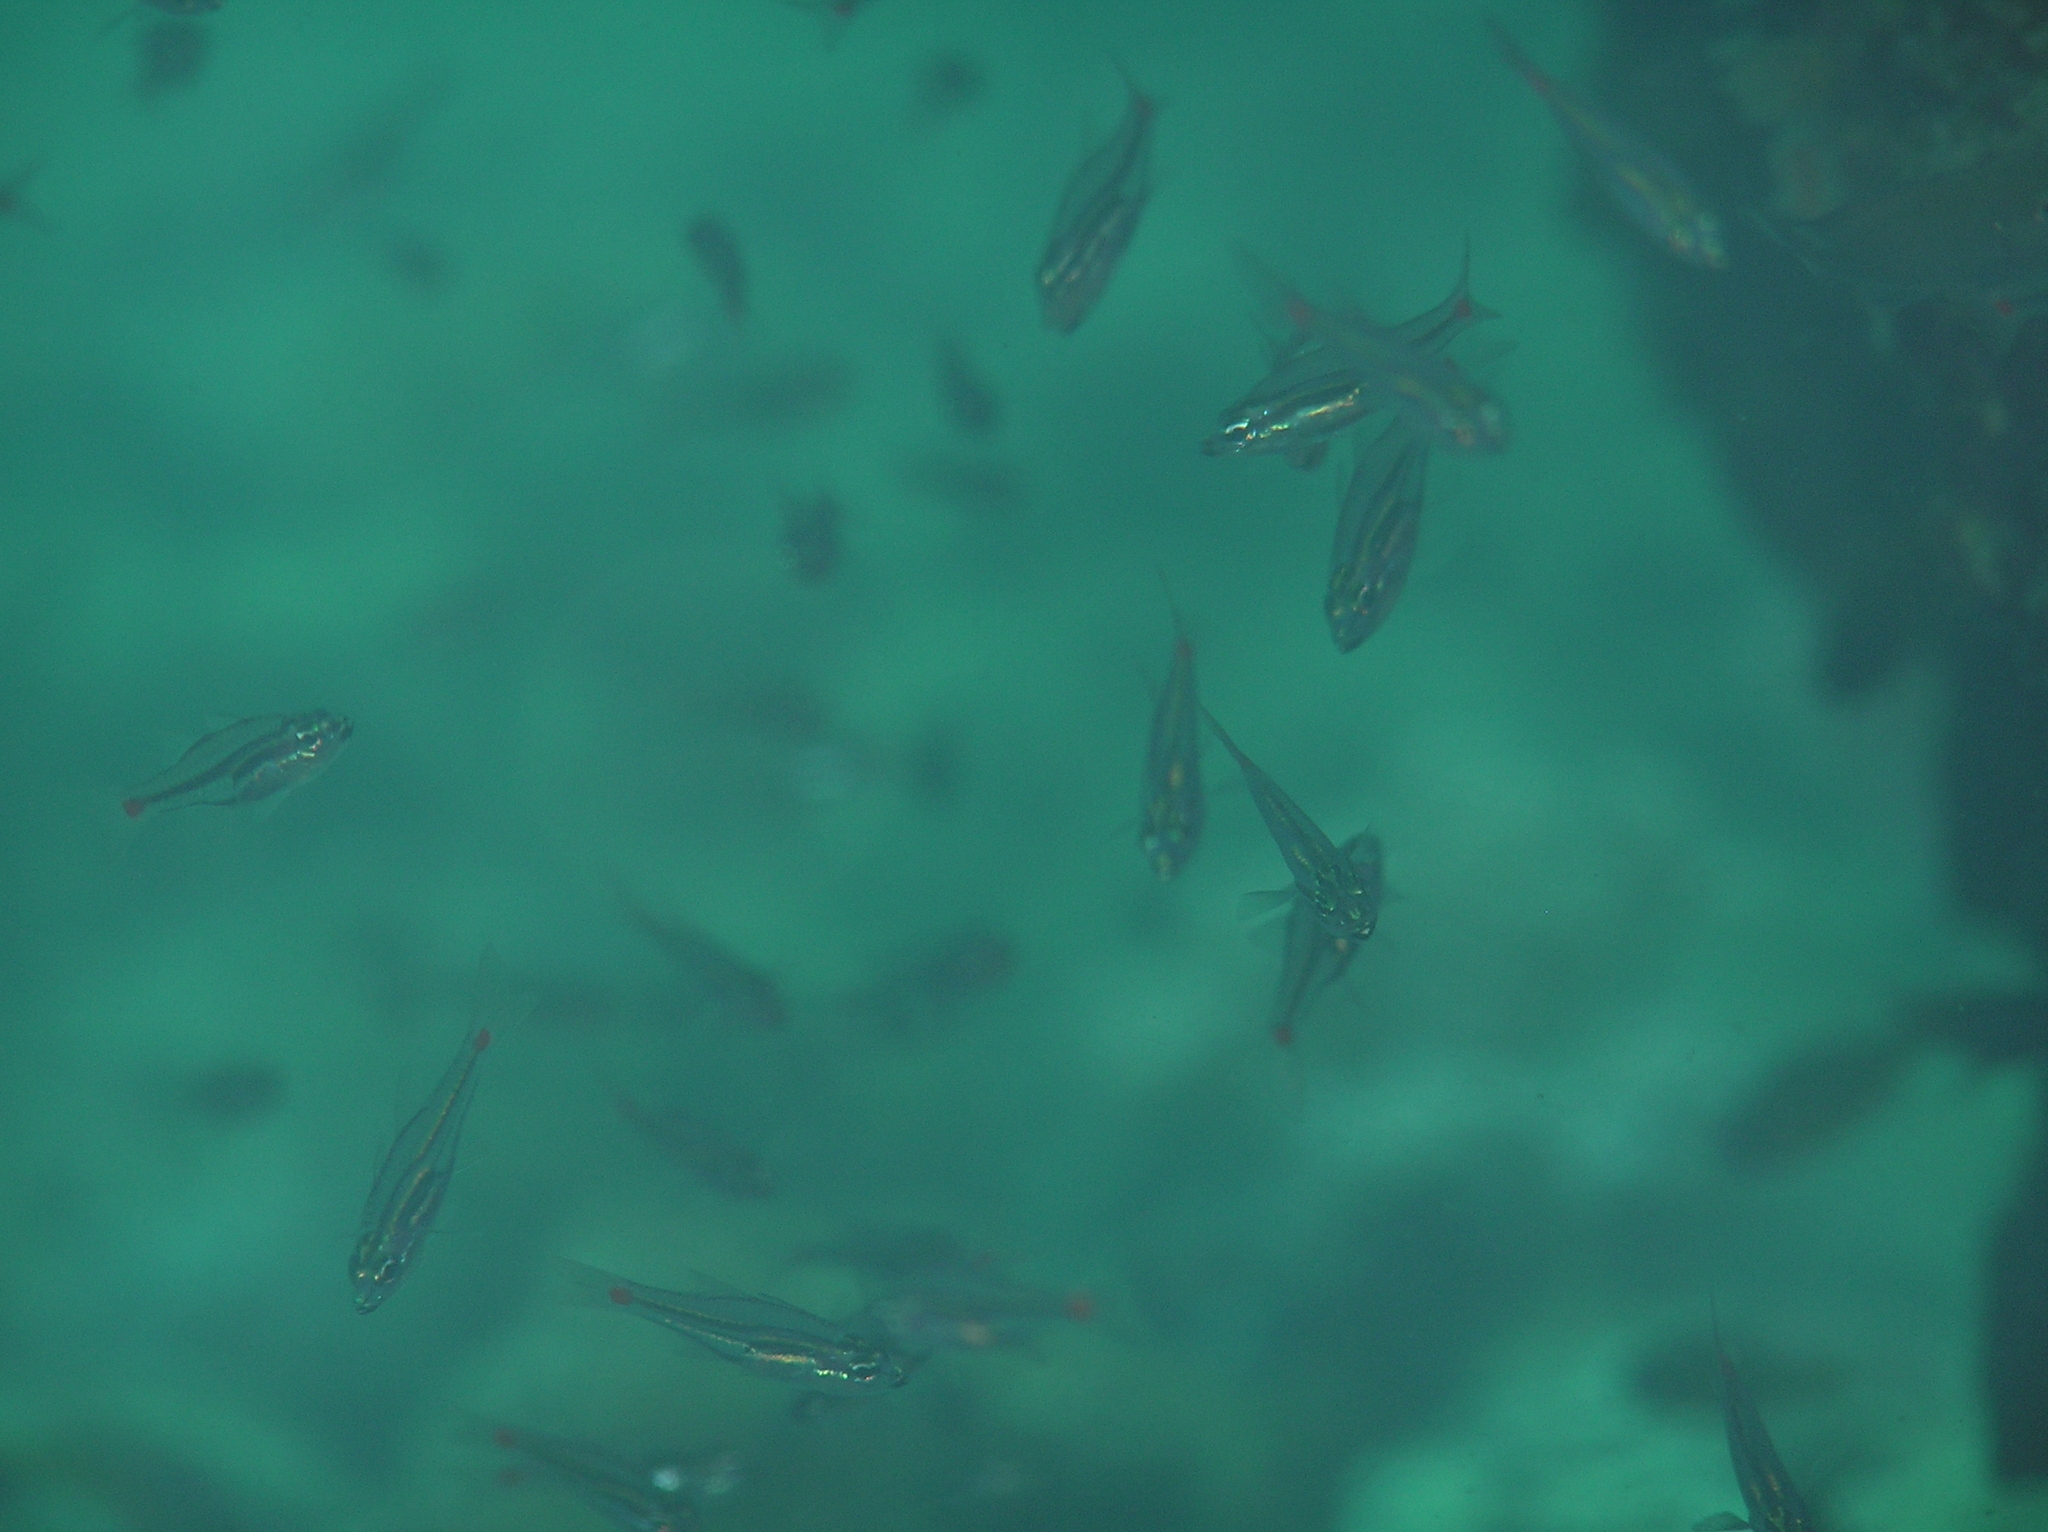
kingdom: Animalia
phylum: Chordata
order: Perciformes
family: Apogonidae
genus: Ostorhinchus
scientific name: Ostorhinchus parvulus
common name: Red-spot cardinalfish
